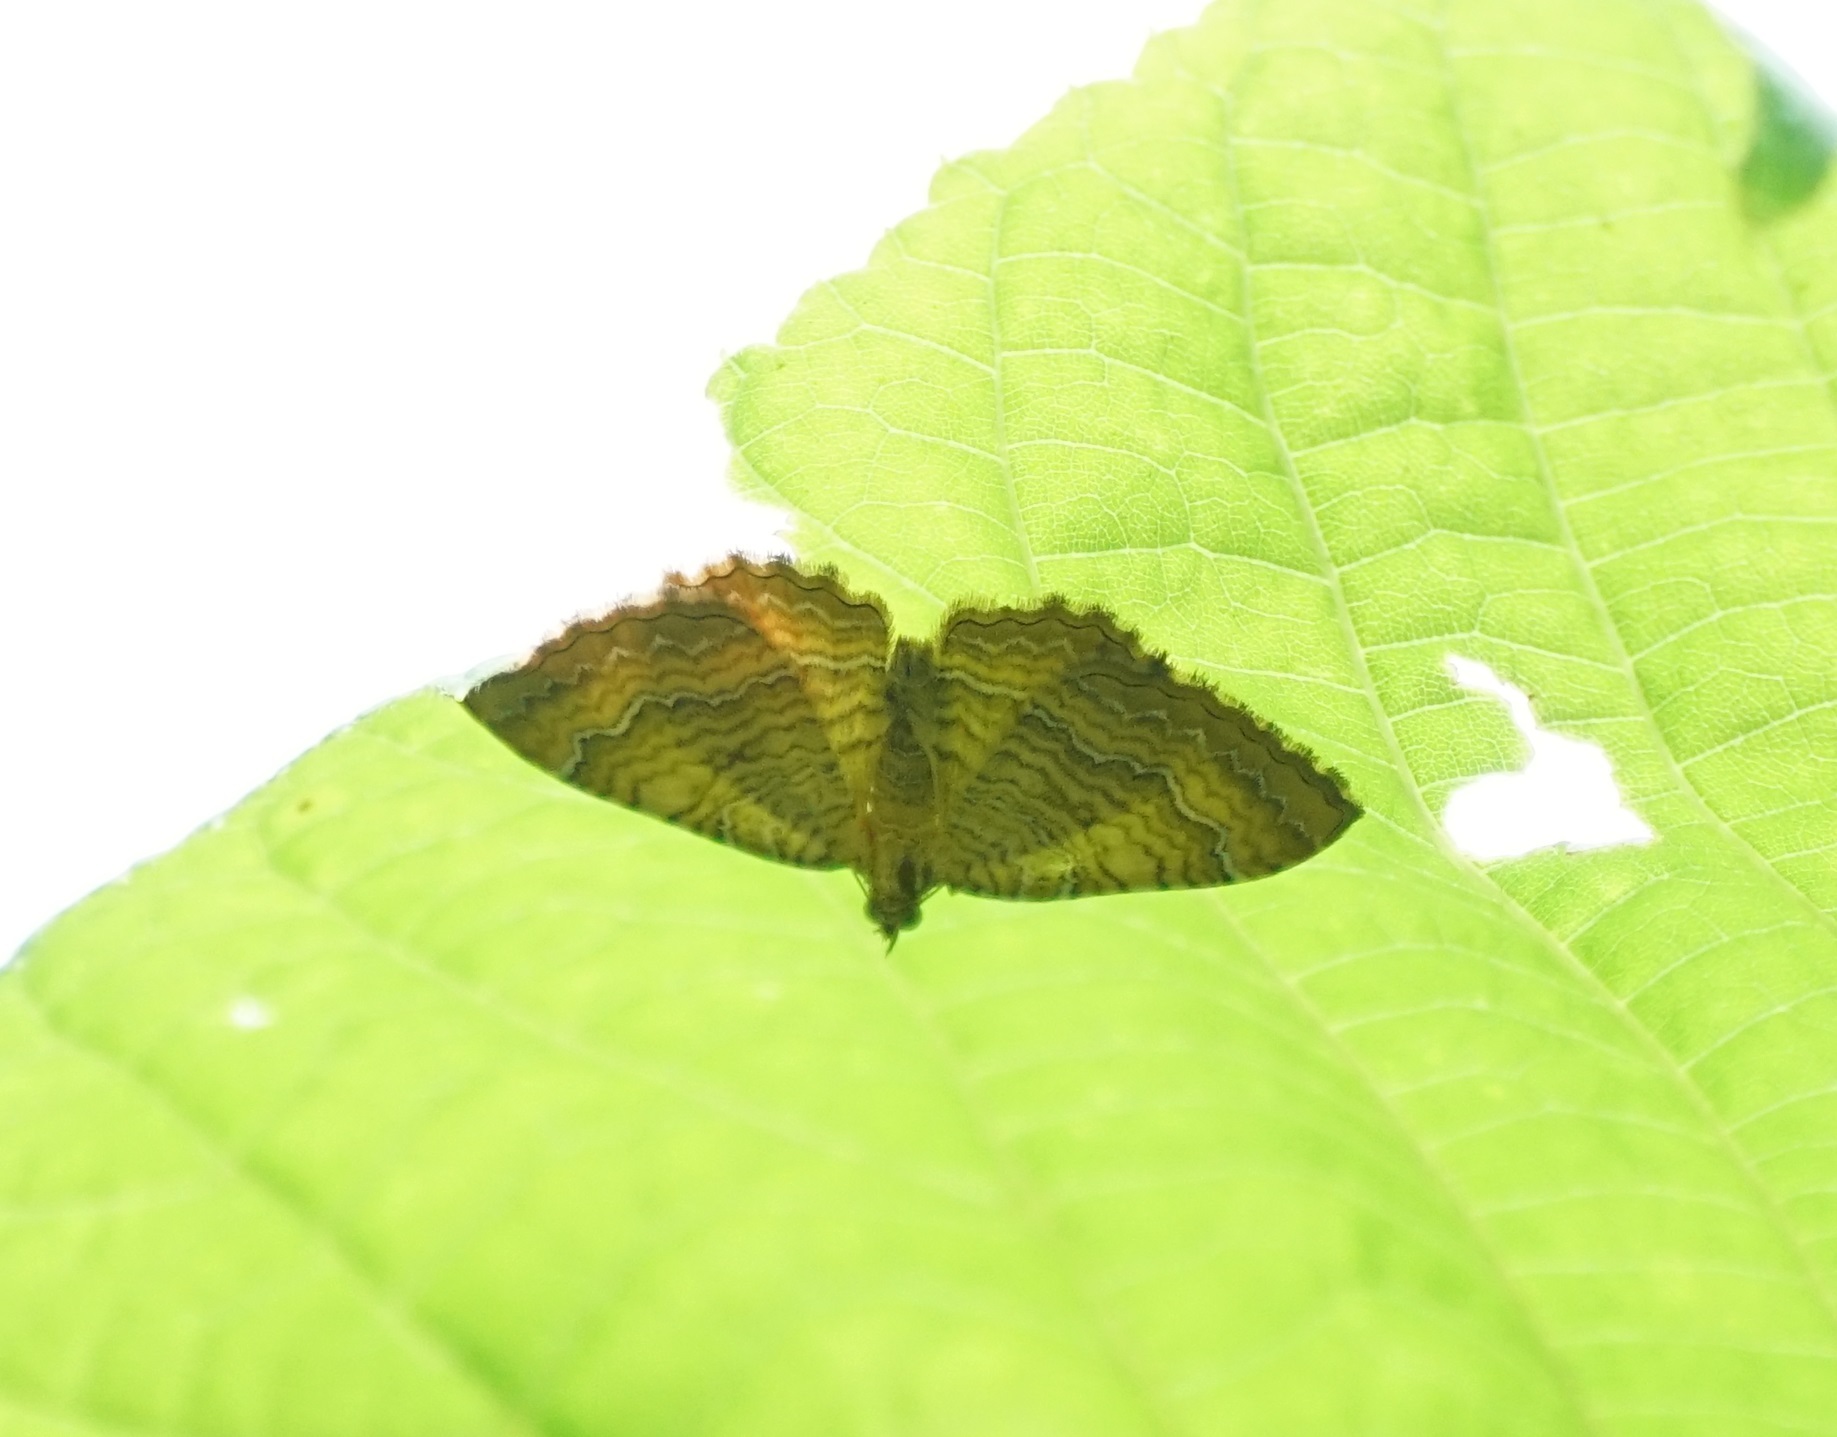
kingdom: Animalia
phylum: Arthropoda
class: Insecta
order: Lepidoptera
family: Geometridae
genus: Camptogramma
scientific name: Camptogramma bilineata
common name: Yellow shell
